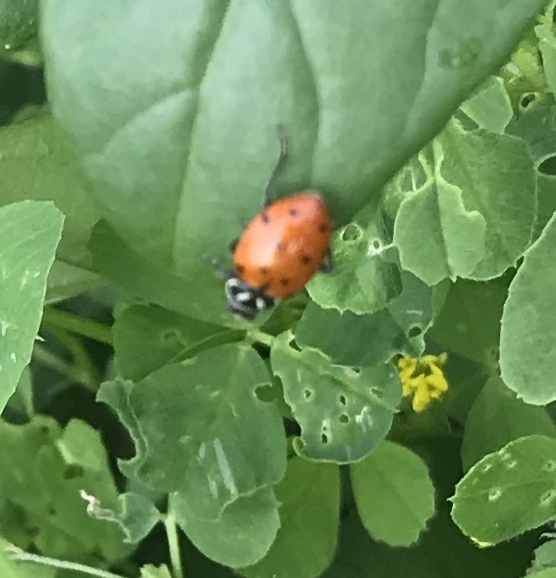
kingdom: Animalia
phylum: Arthropoda
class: Insecta
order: Coleoptera
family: Coccinellidae
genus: Hippodamia
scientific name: Hippodamia convergens
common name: Convergent lady beetle
